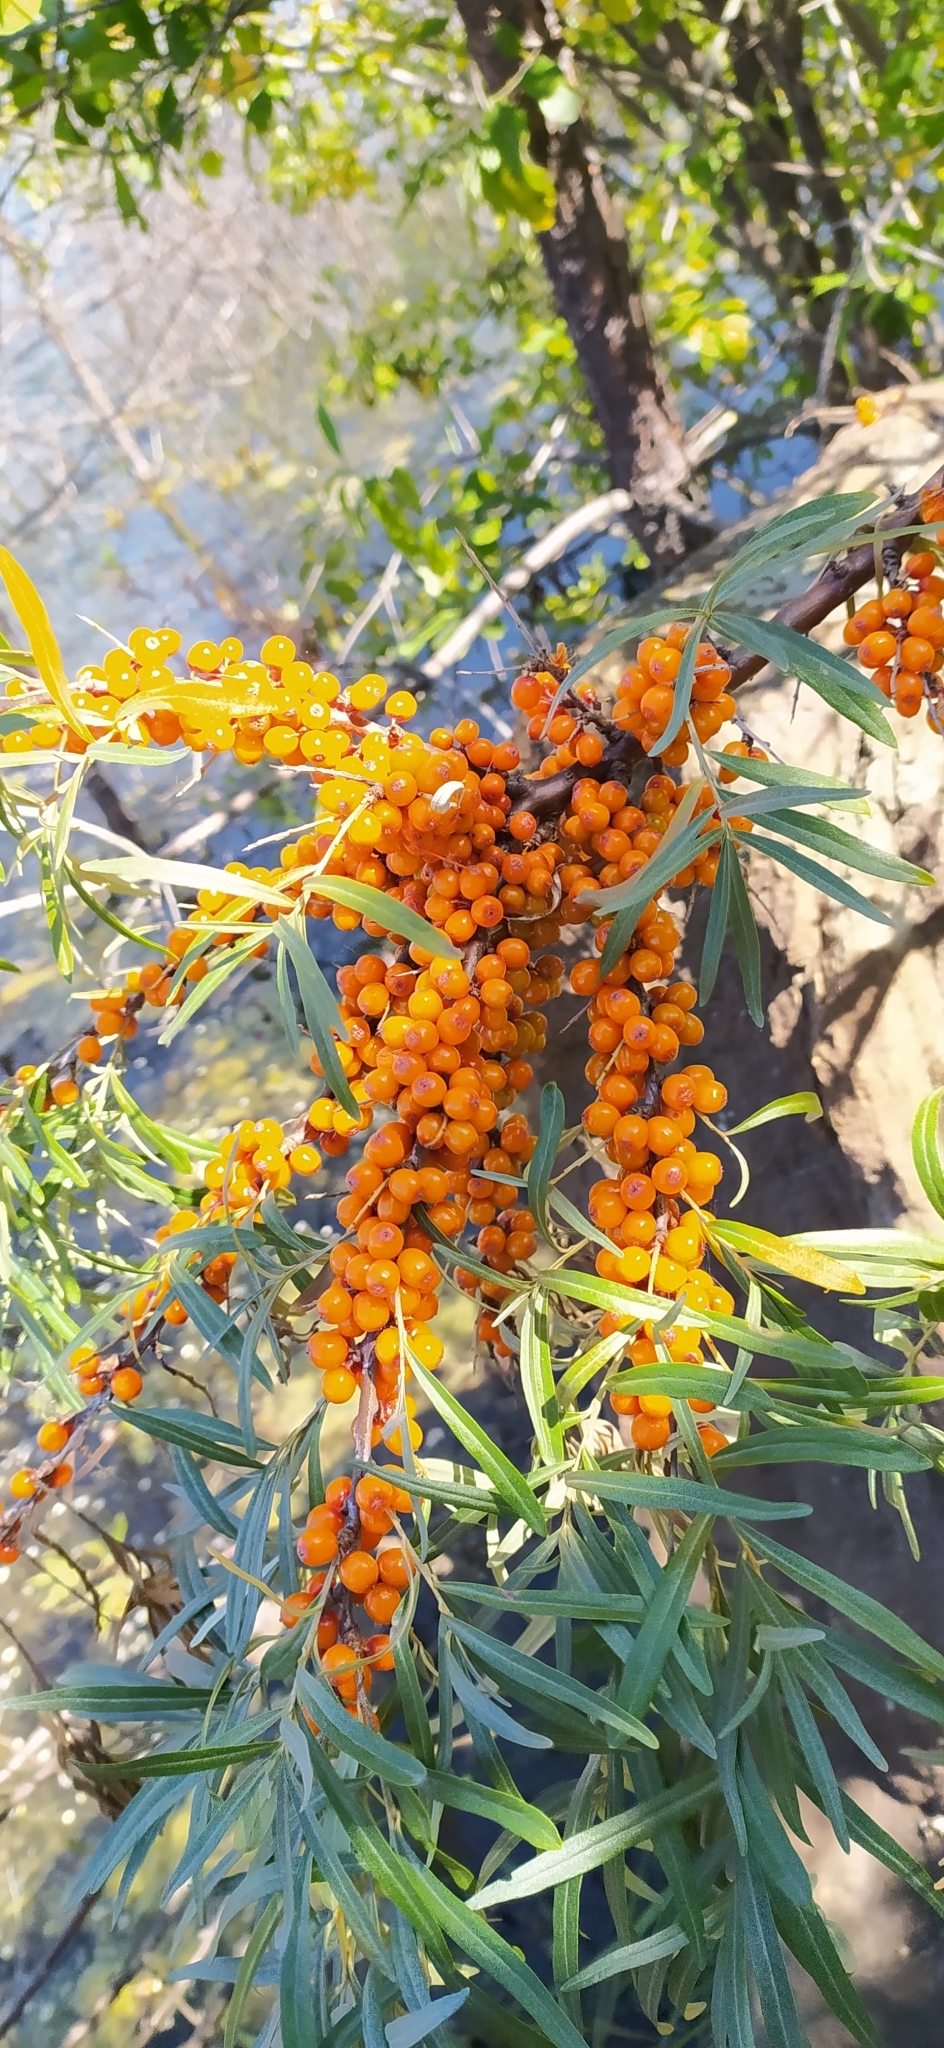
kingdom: Plantae
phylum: Tracheophyta
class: Magnoliopsida
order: Rosales
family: Elaeagnaceae
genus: Hippophae
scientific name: Hippophae rhamnoides
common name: Sea-buckthorn
